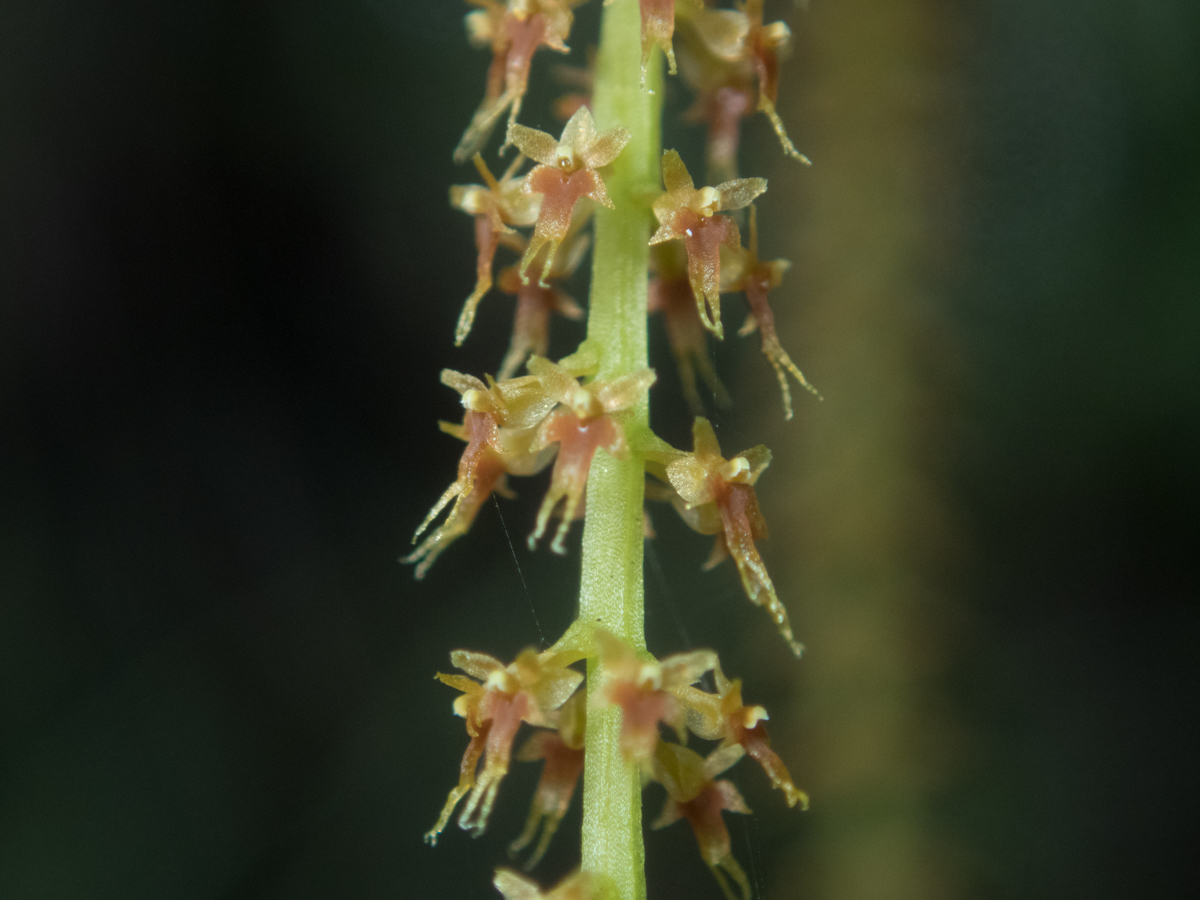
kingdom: Plantae
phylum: Tracheophyta
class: Liliopsida
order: Asparagales
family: Orchidaceae
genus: Oberonia
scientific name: Oberonia falcata
